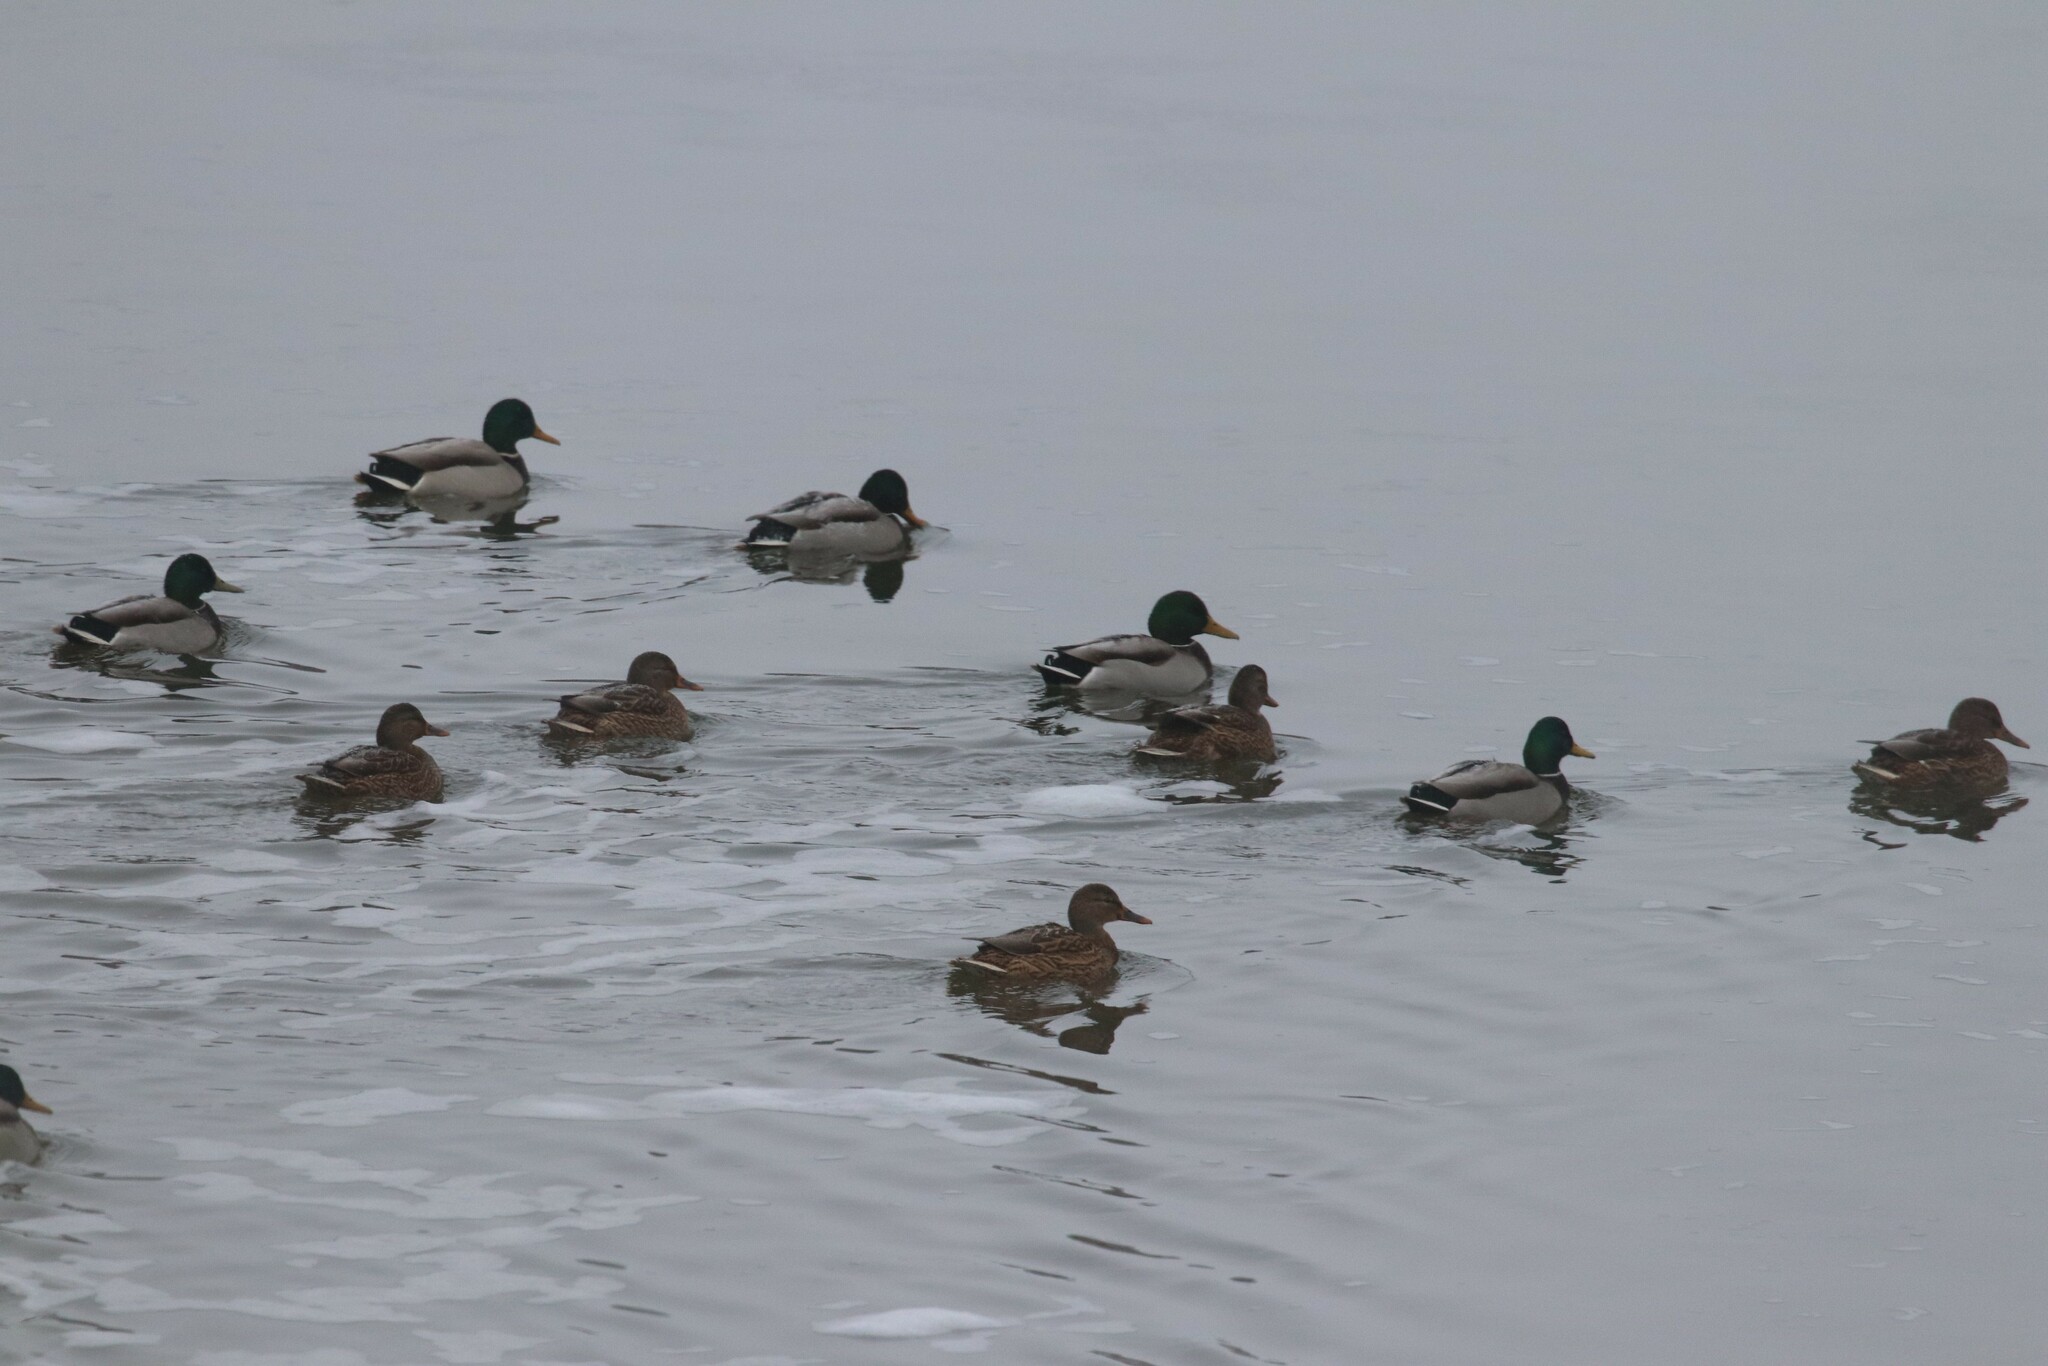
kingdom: Animalia
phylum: Chordata
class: Aves
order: Anseriformes
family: Anatidae
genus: Anas
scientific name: Anas platyrhynchos
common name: Mallard
